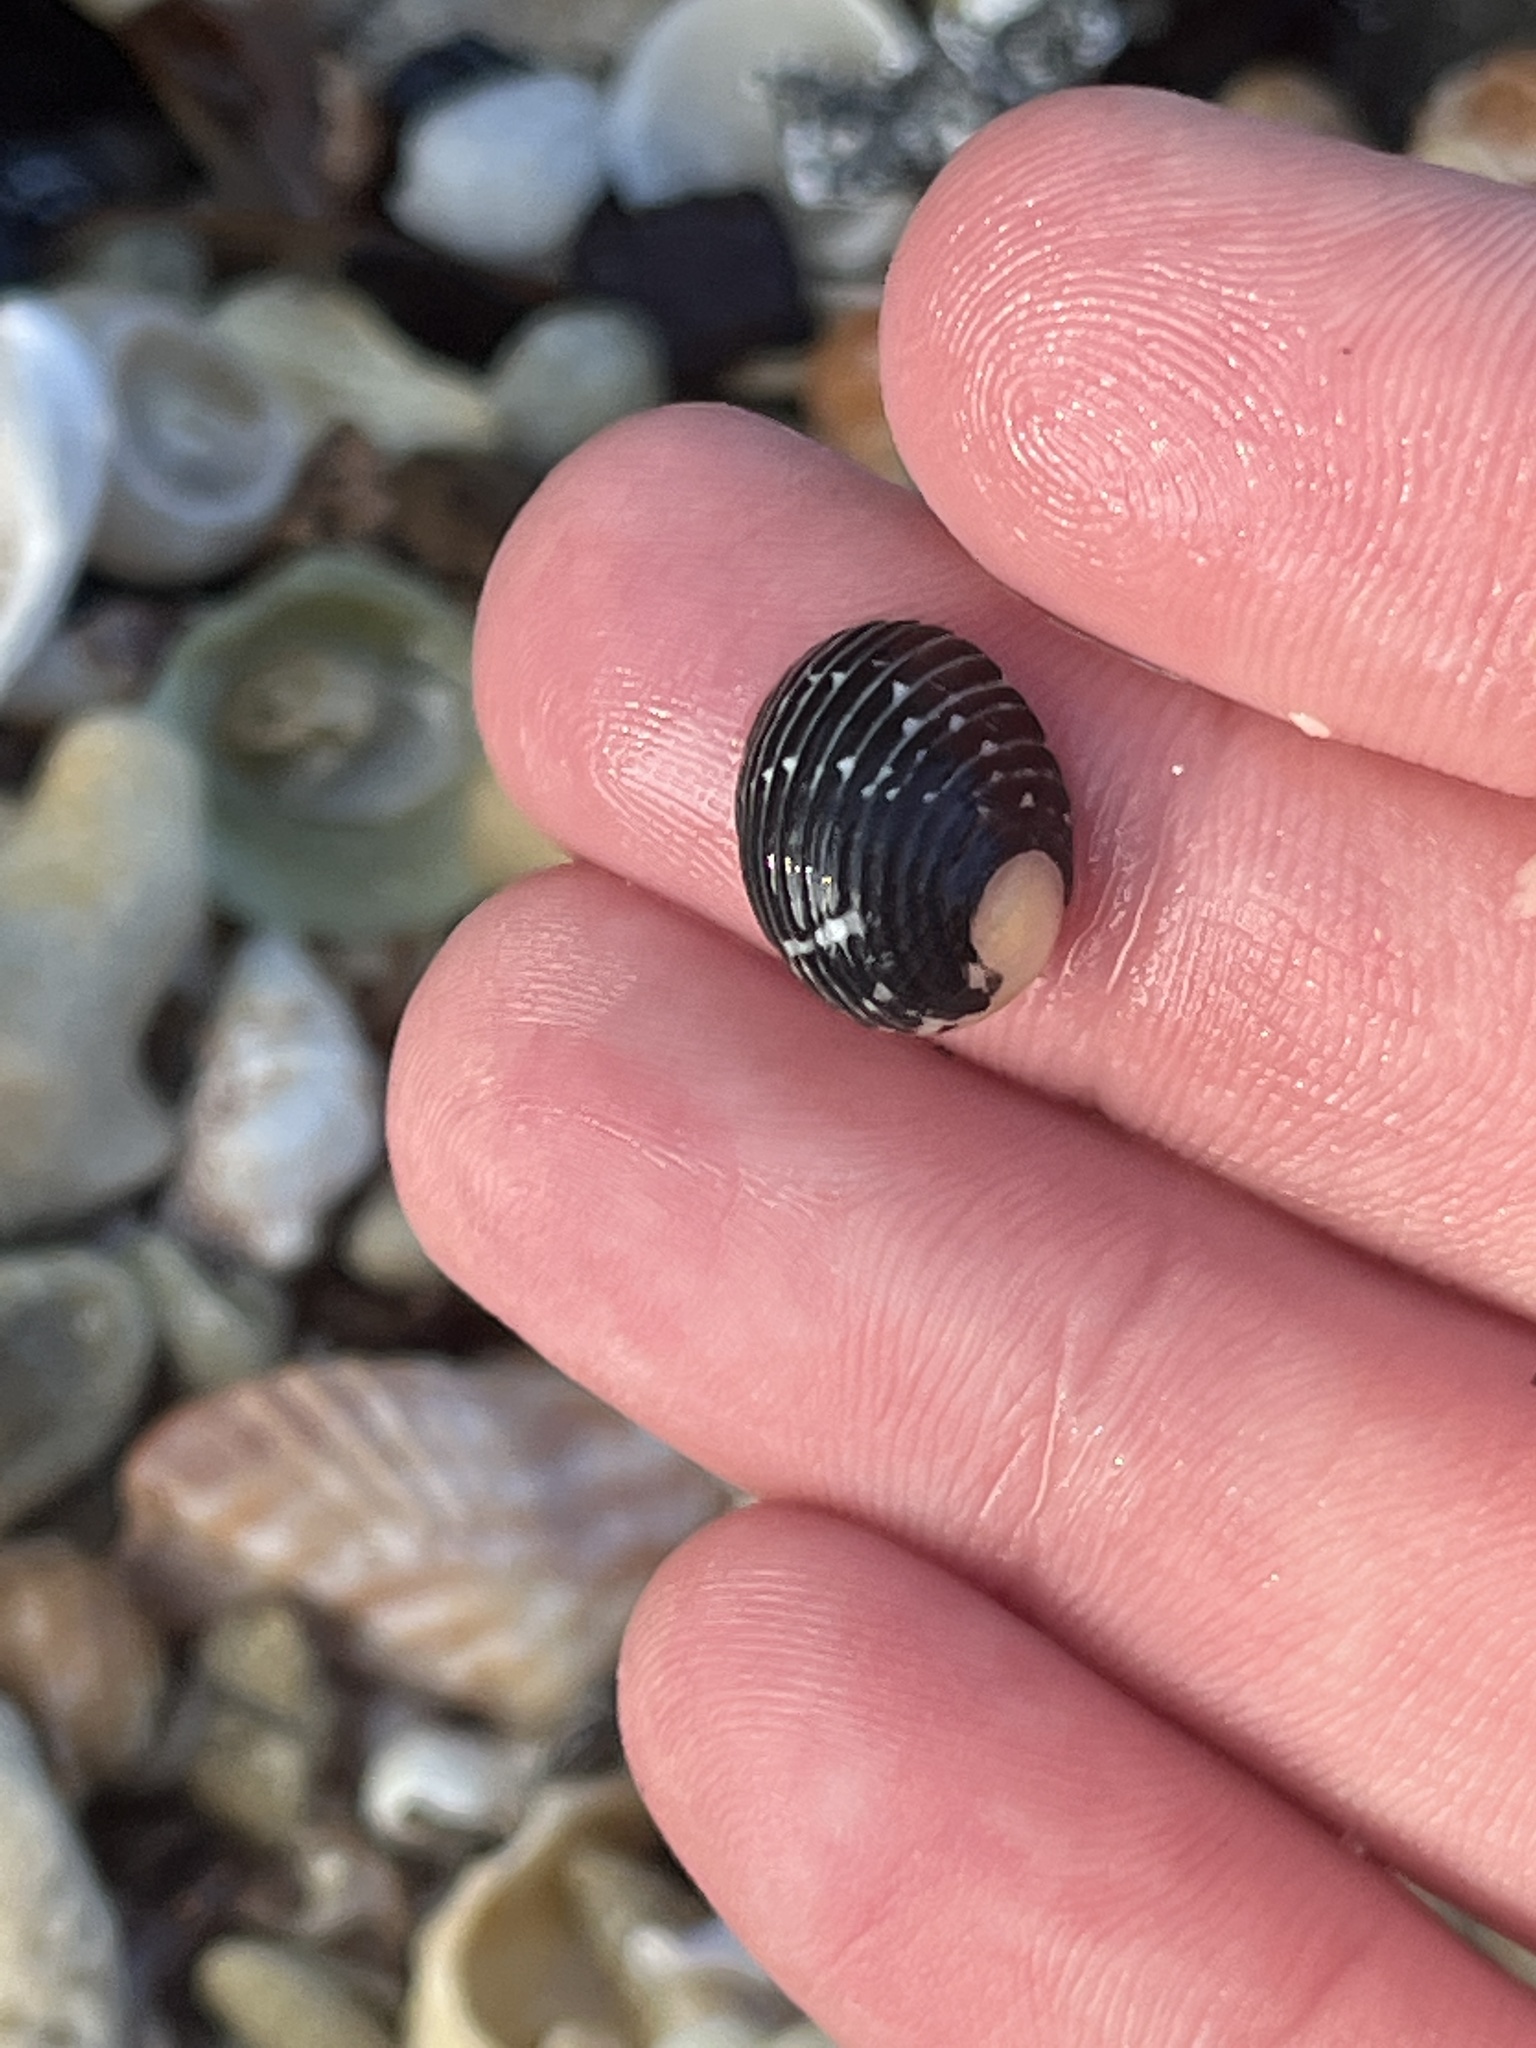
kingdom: Animalia
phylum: Mollusca
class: Gastropoda
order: Cycloneritida
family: Neritidae
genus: Nerita
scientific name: Nerita tessellata
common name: Checkered nerite
